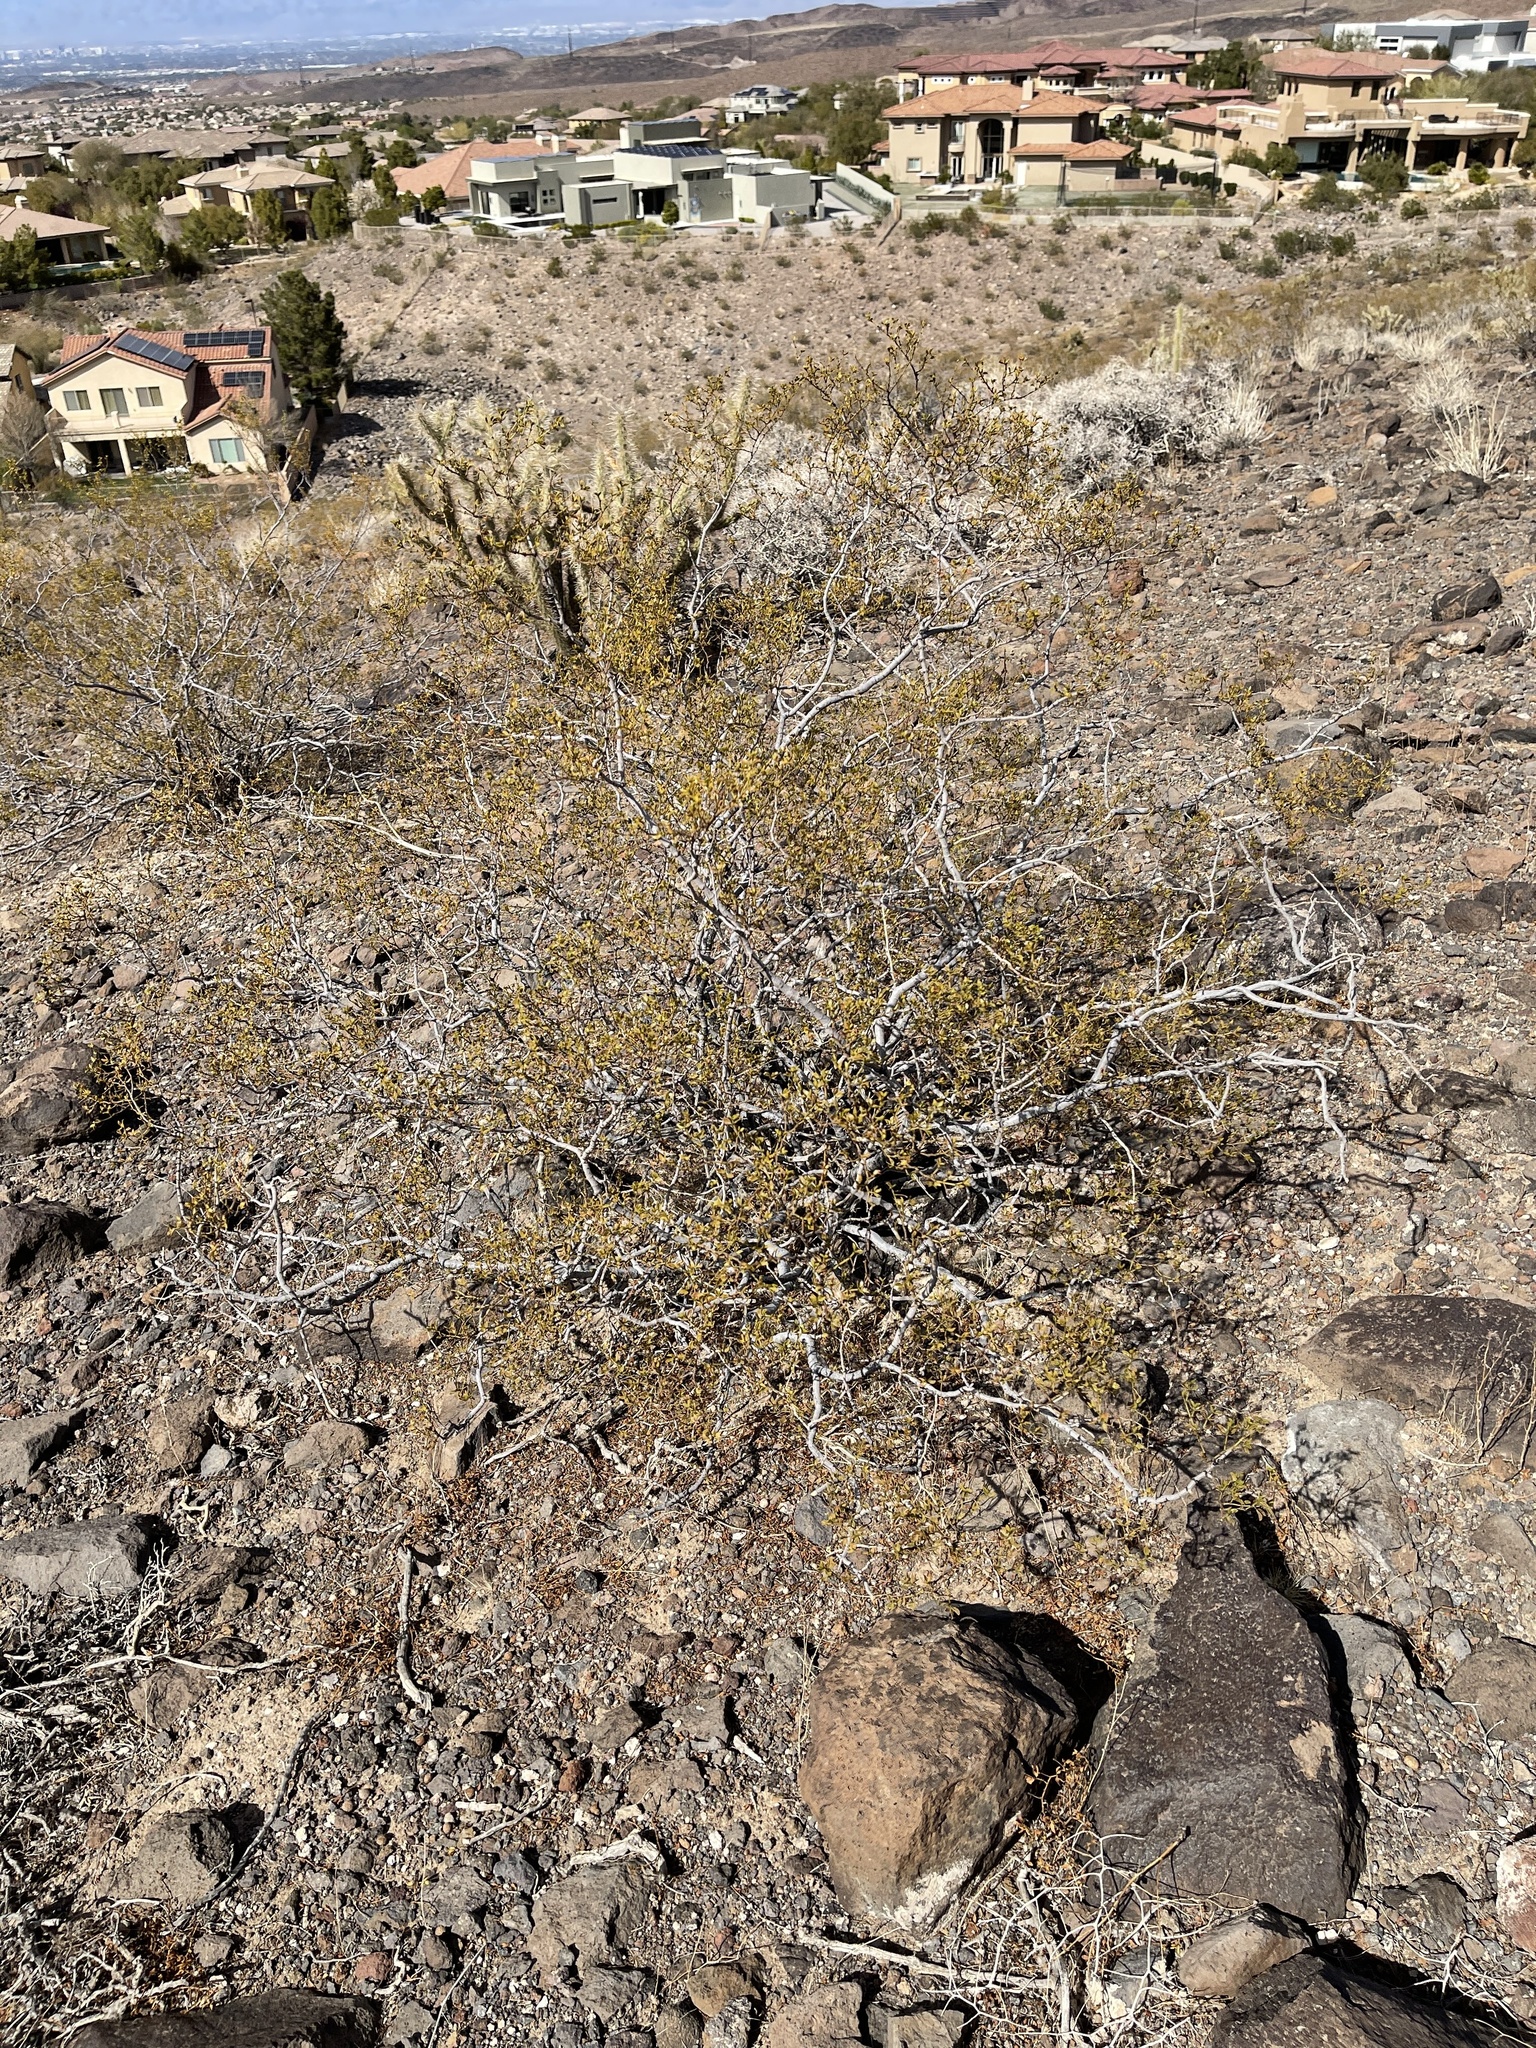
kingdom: Plantae
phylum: Tracheophyta
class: Magnoliopsida
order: Zygophyllales
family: Zygophyllaceae
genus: Larrea
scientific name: Larrea tridentata
